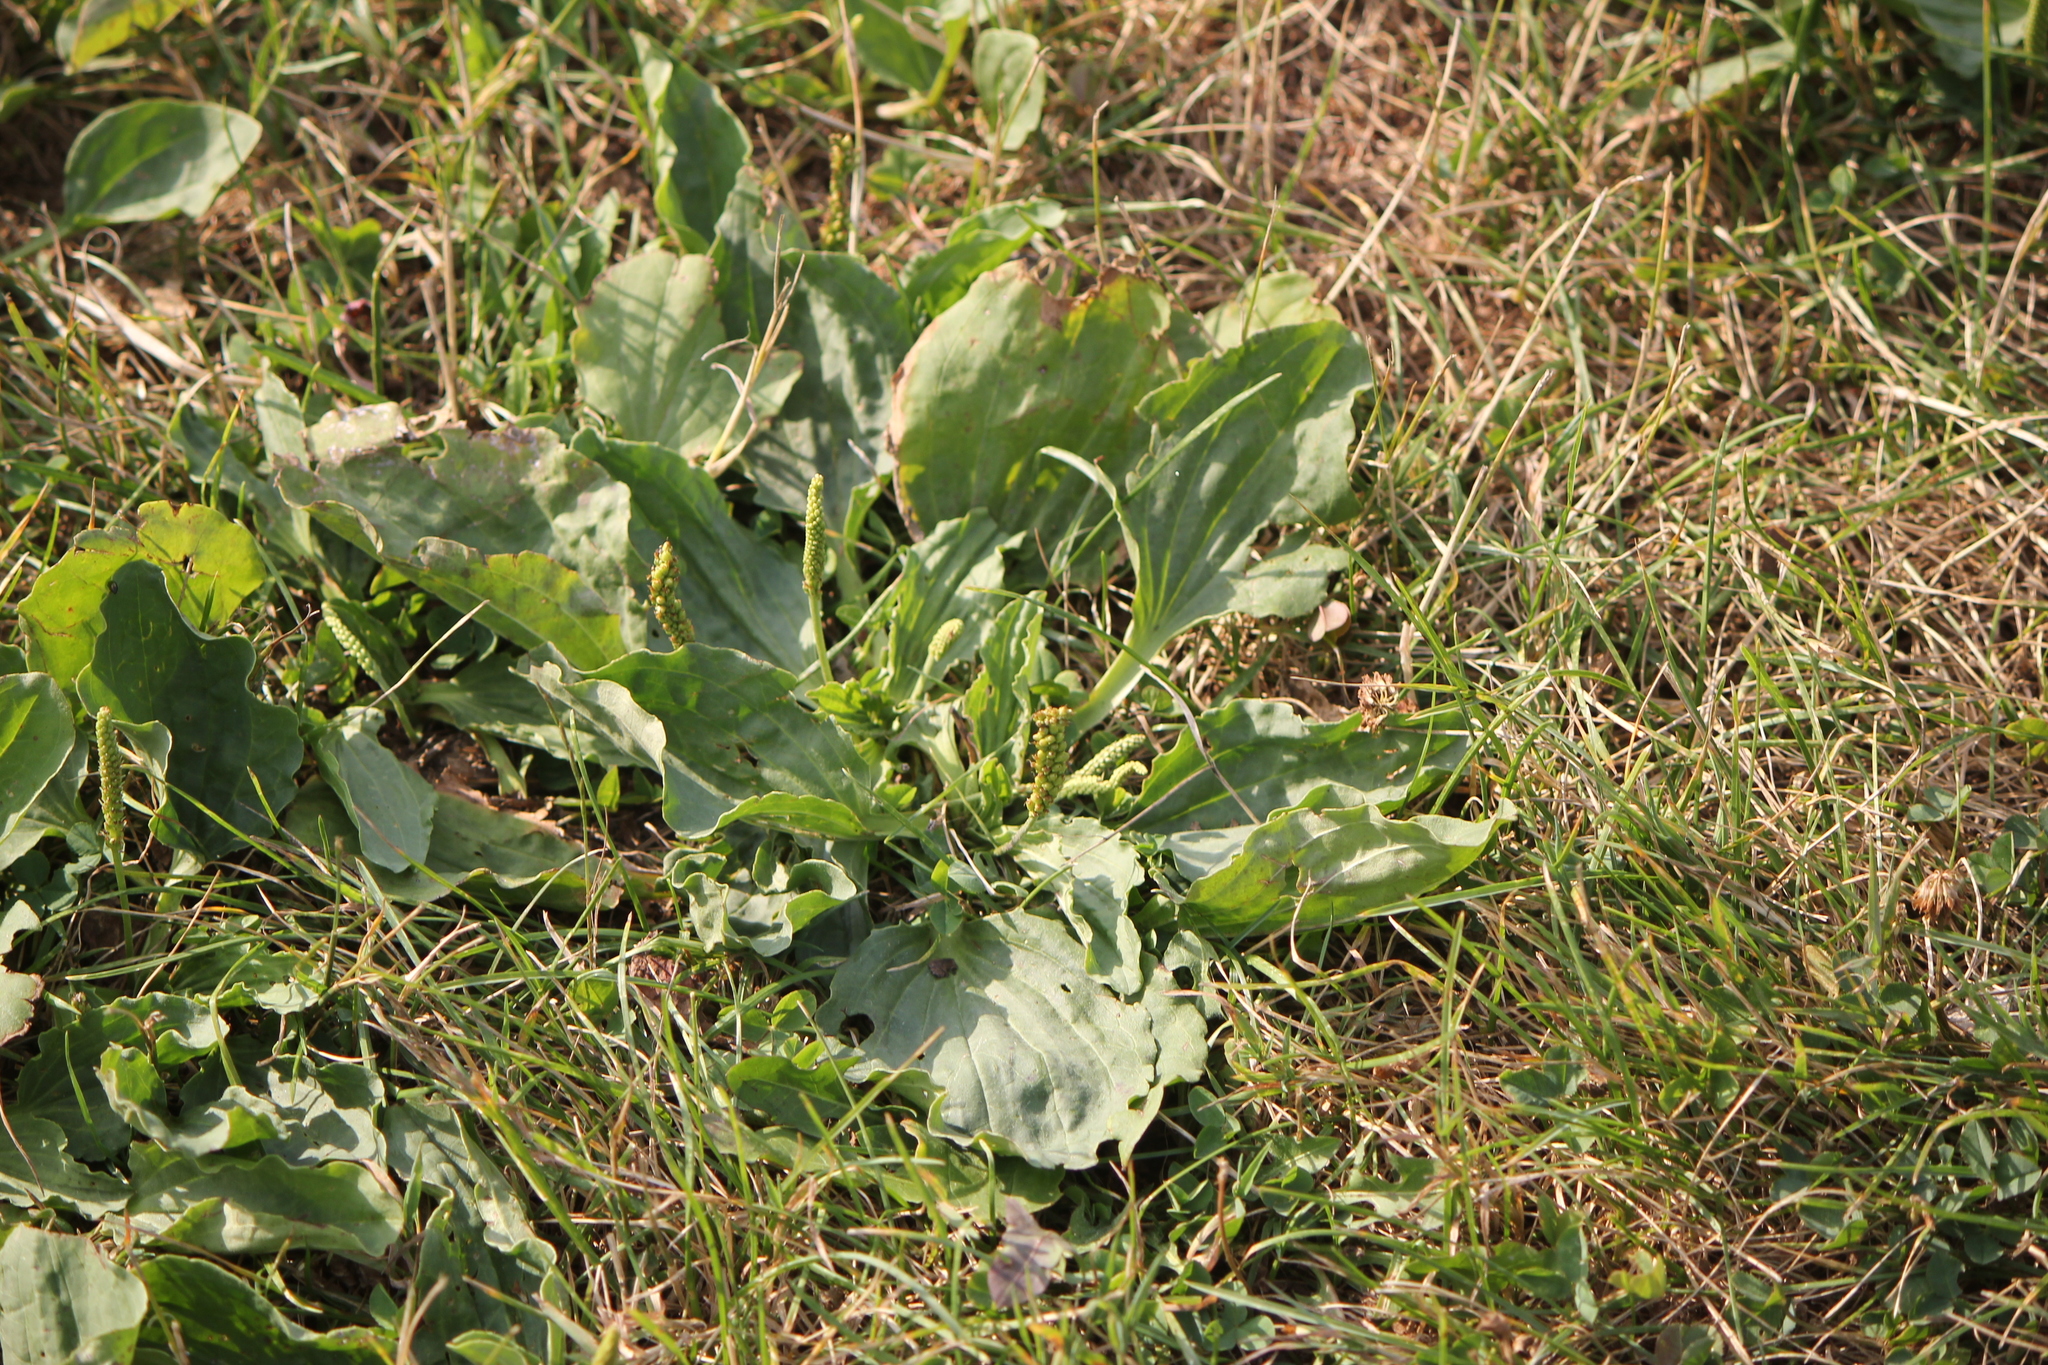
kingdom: Plantae
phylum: Tracheophyta
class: Magnoliopsida
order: Lamiales
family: Plantaginaceae
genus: Plantago
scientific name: Plantago major
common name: Common plantain
